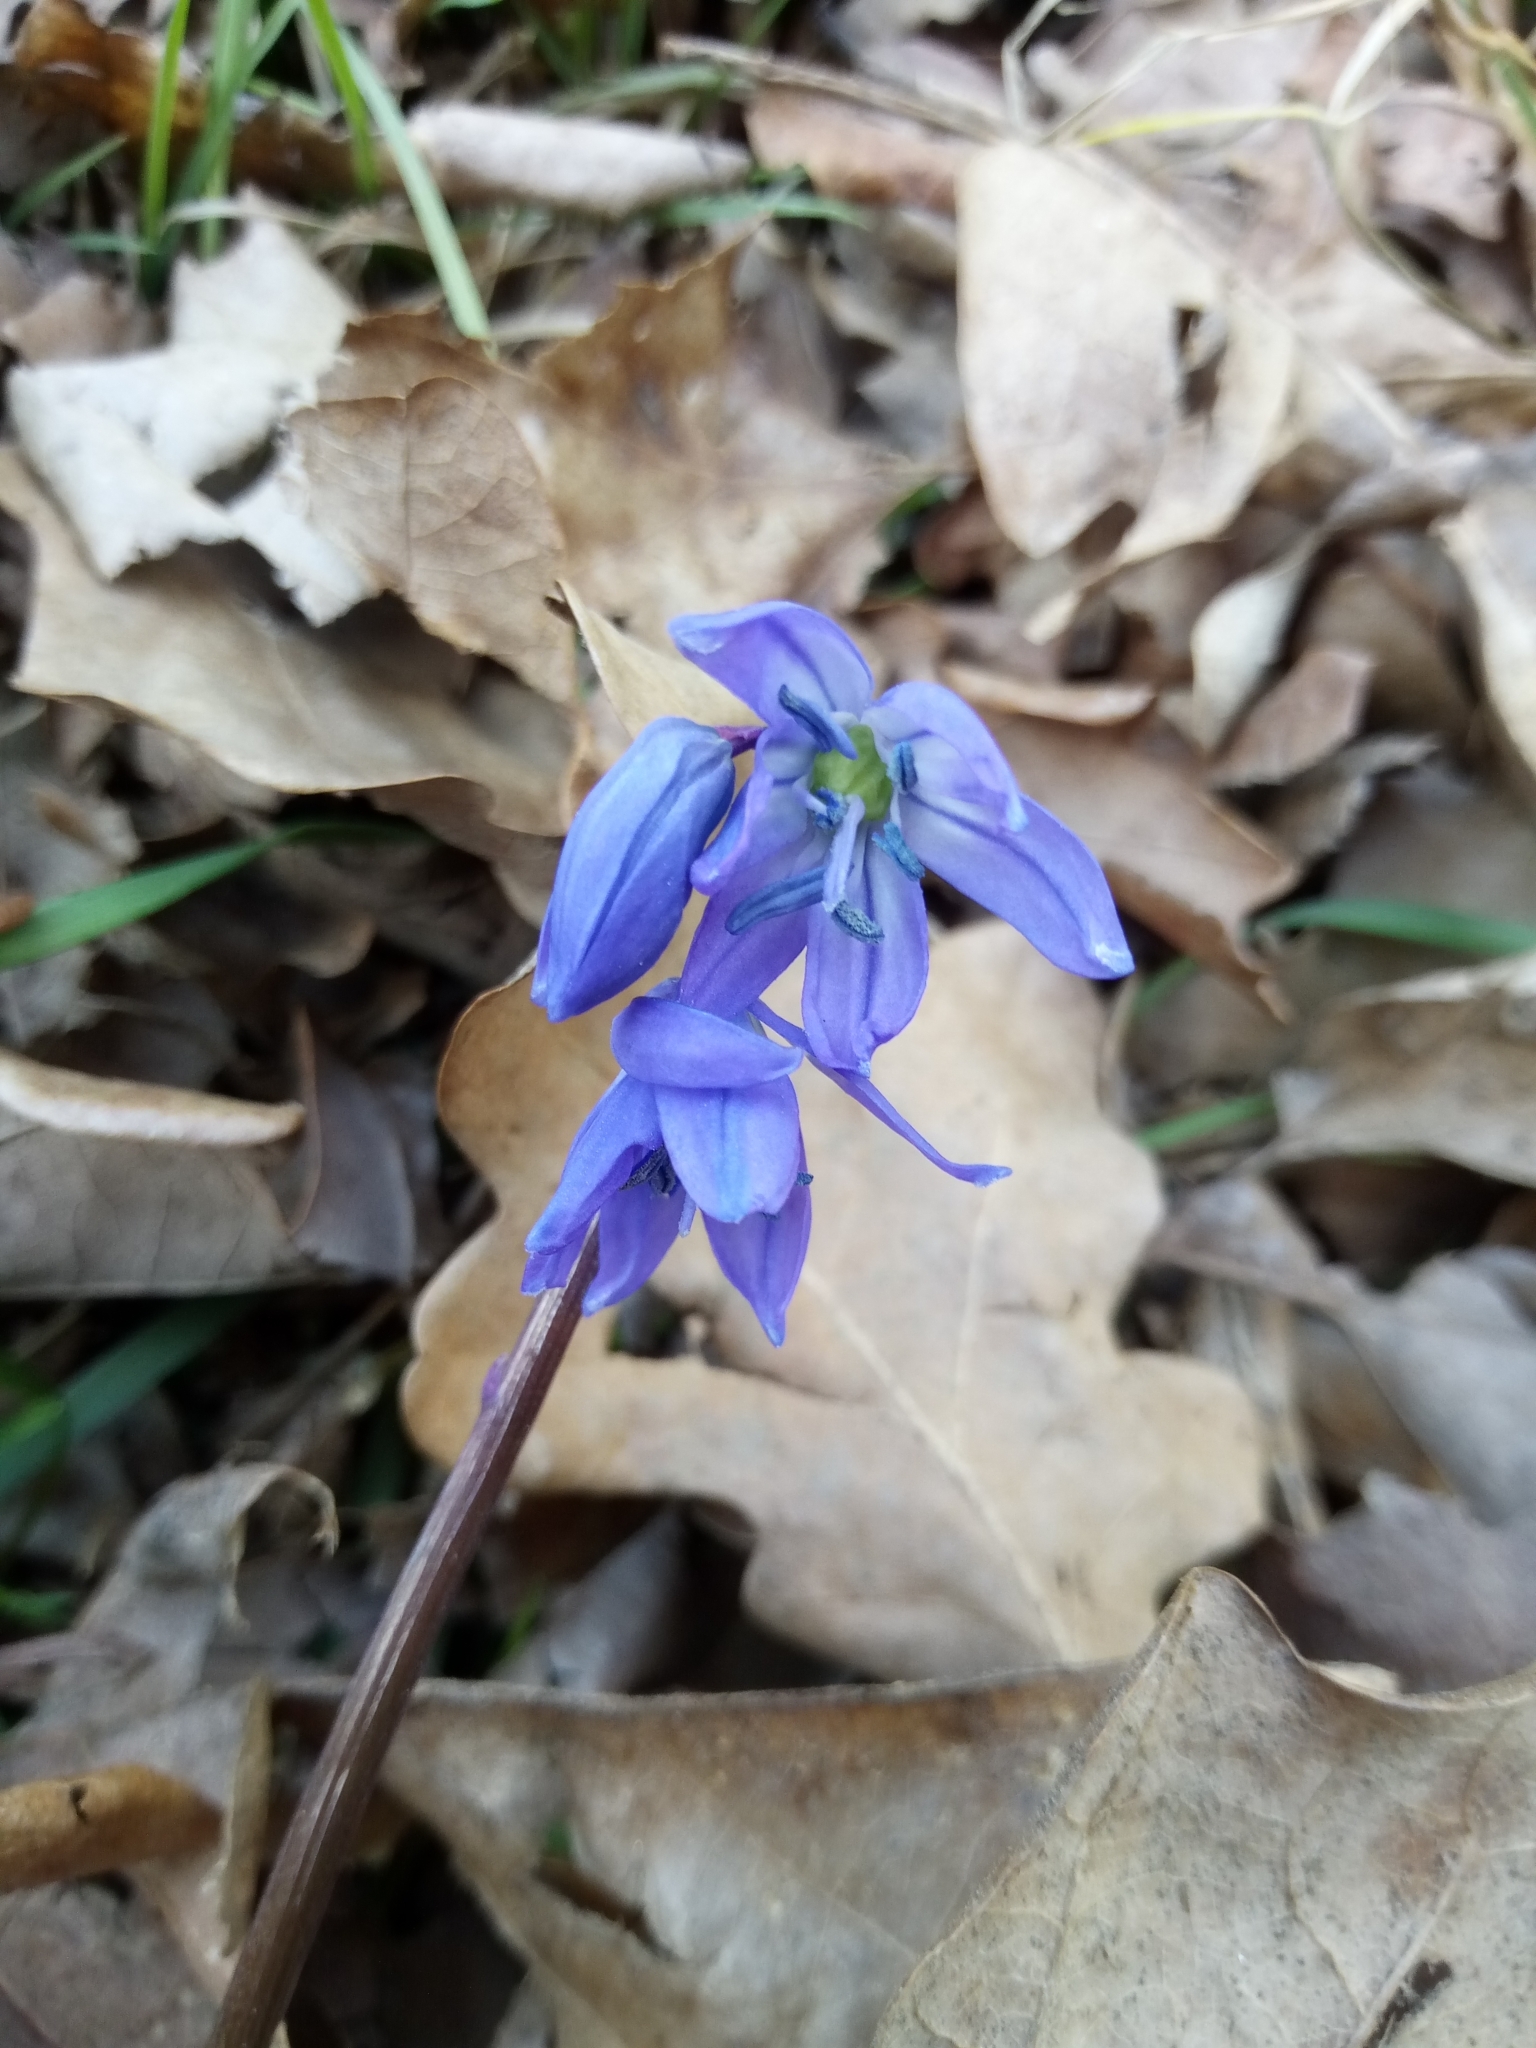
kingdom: Plantae
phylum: Tracheophyta
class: Liliopsida
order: Asparagales
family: Asparagaceae
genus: Scilla
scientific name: Scilla siberica
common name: Siberian squill
